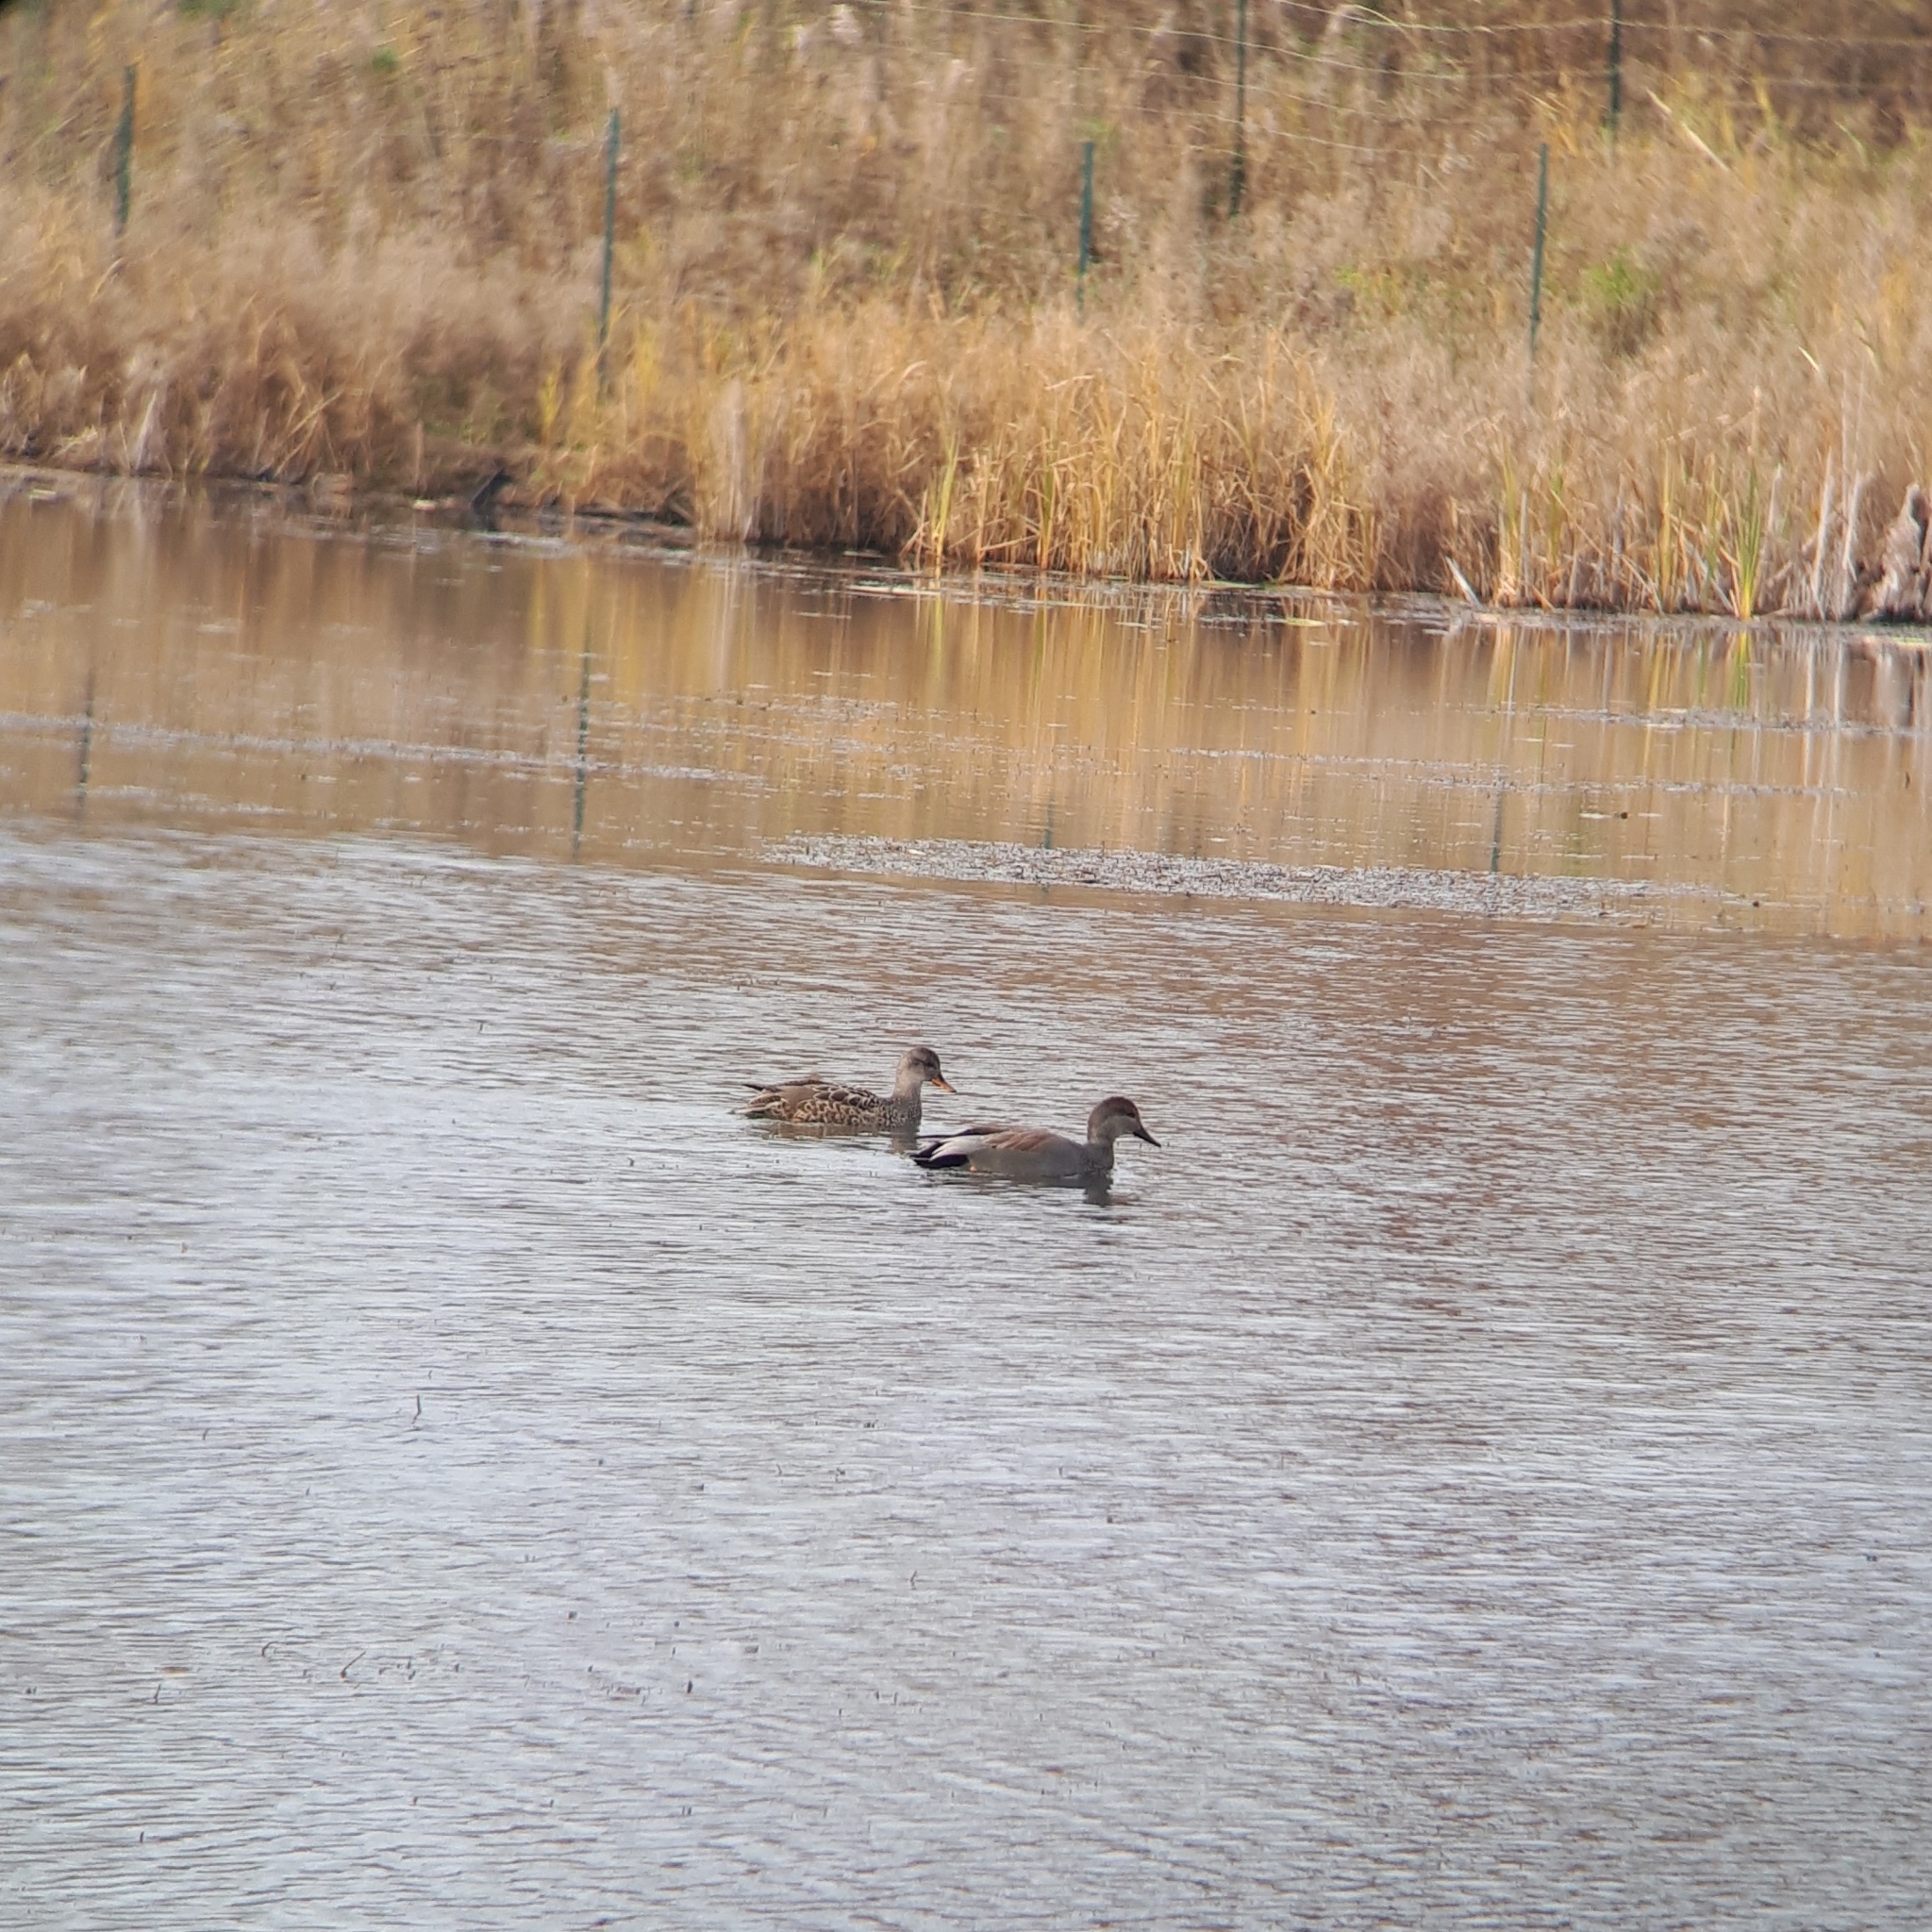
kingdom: Animalia
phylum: Chordata
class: Aves
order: Anseriformes
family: Anatidae
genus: Mareca
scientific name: Mareca strepera
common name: Gadwall
